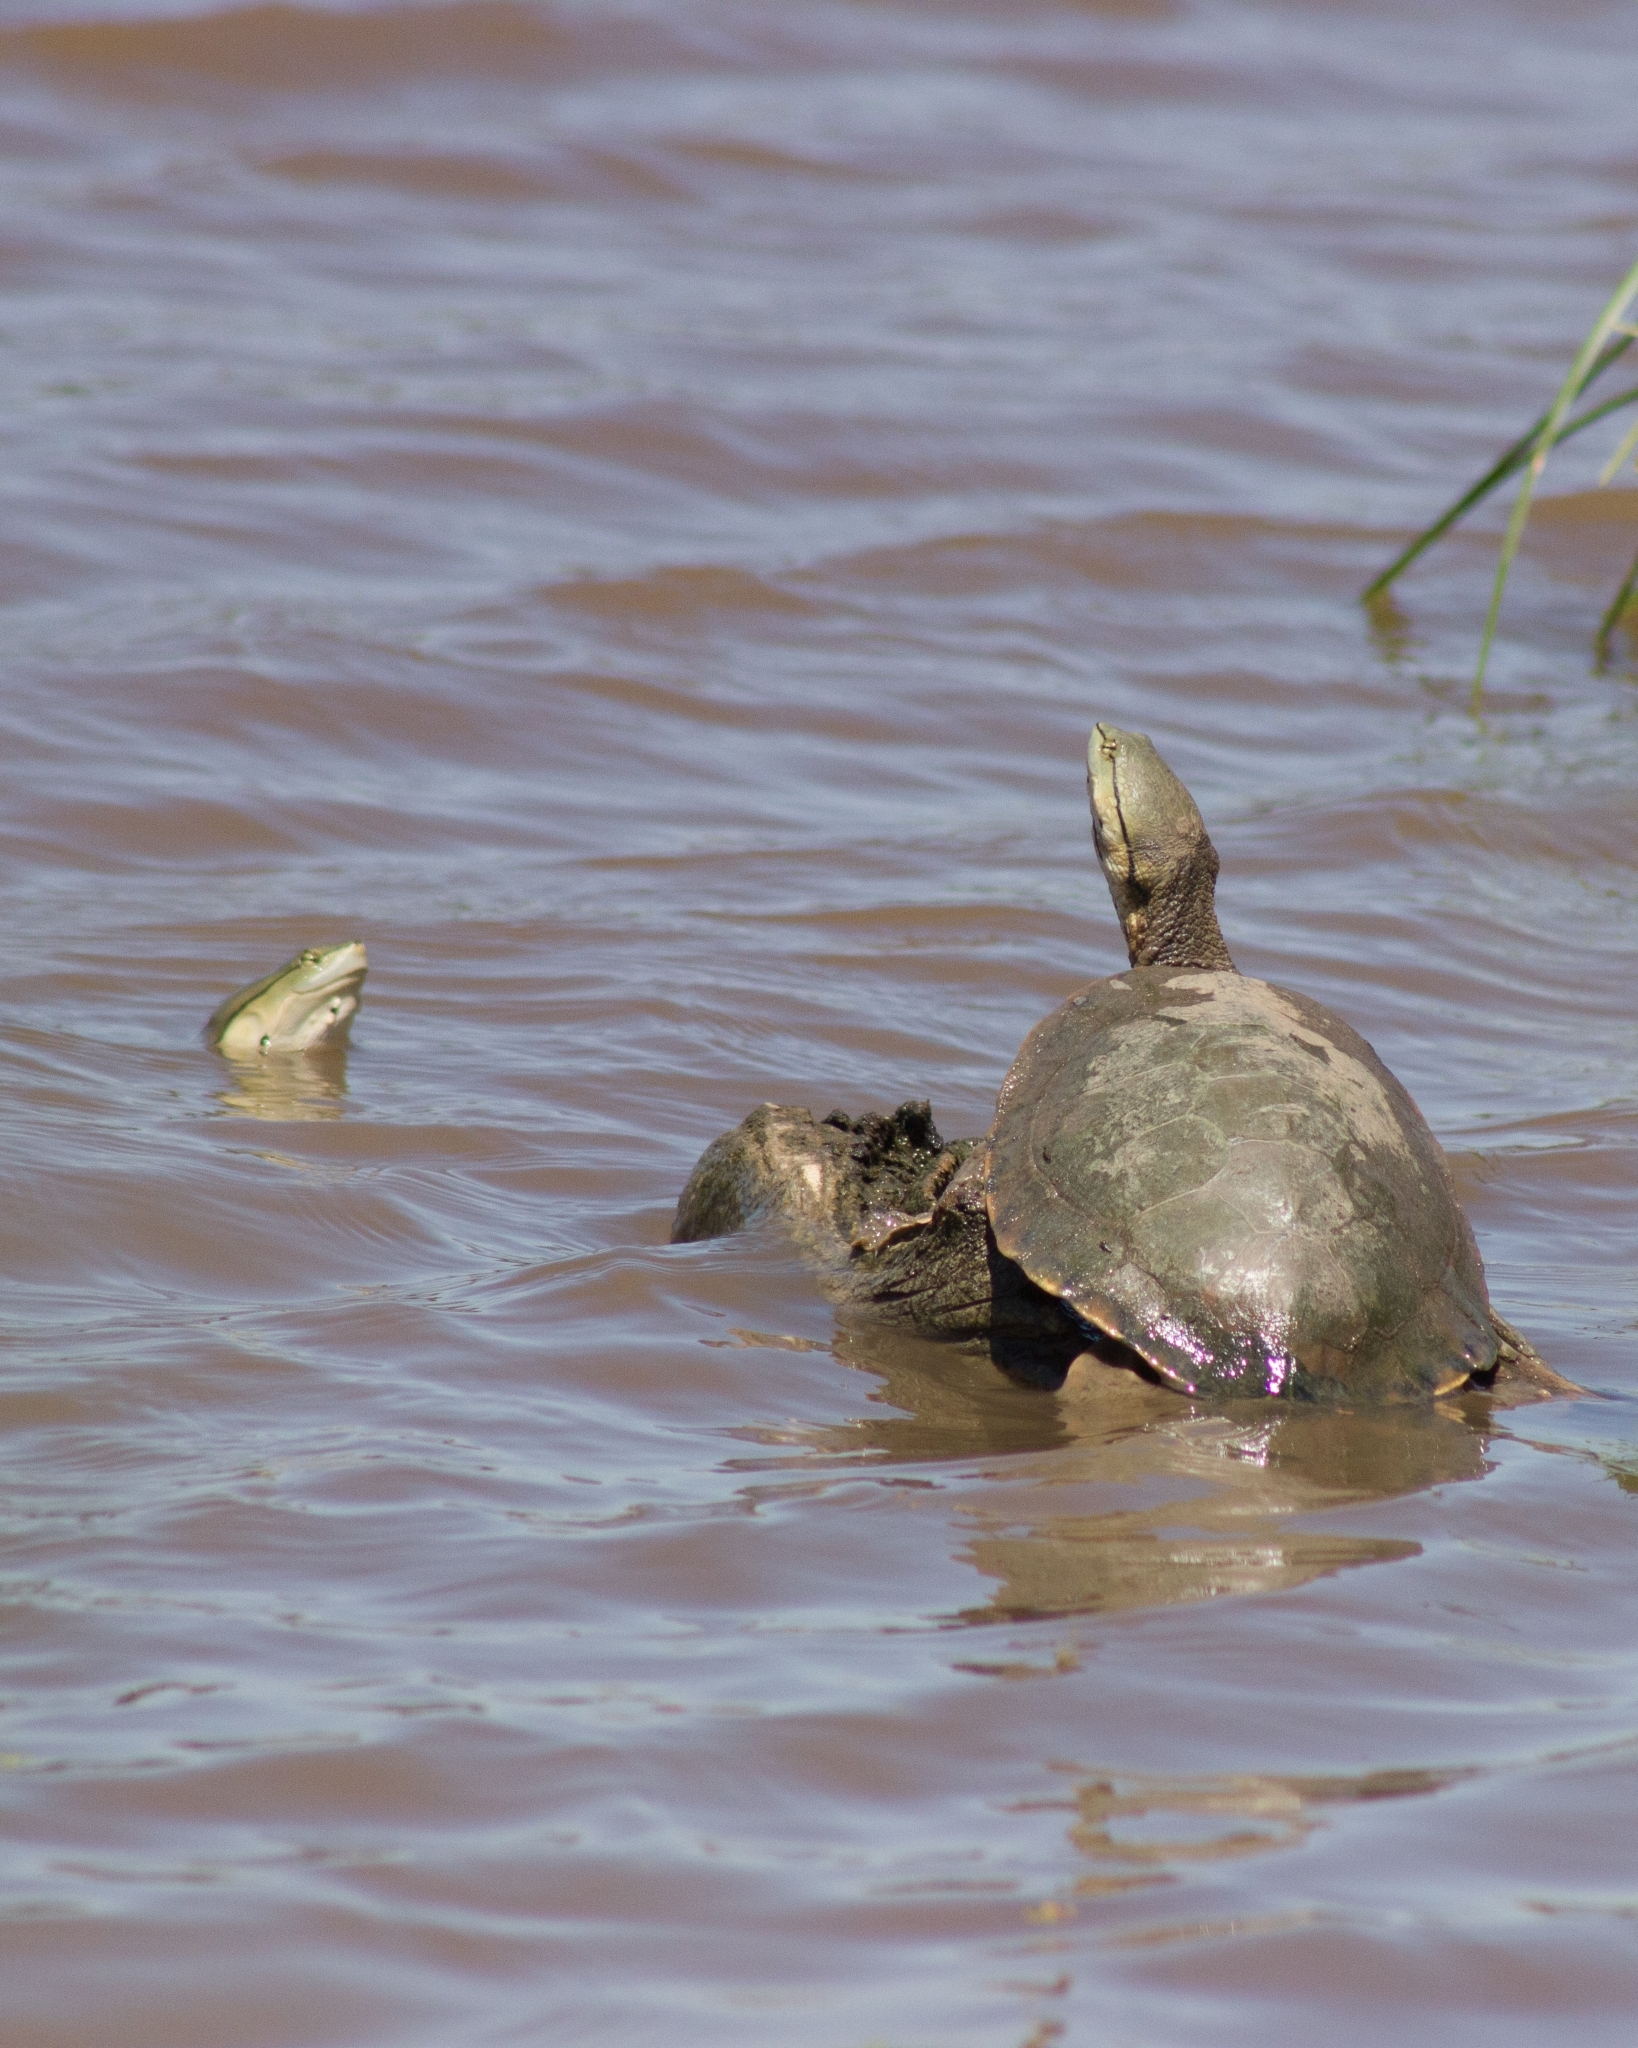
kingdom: Animalia
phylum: Chordata
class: Testudines
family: Chelidae
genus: Phrynops
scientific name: Phrynops hilarii
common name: Side-necked turtle of saint hillaire
